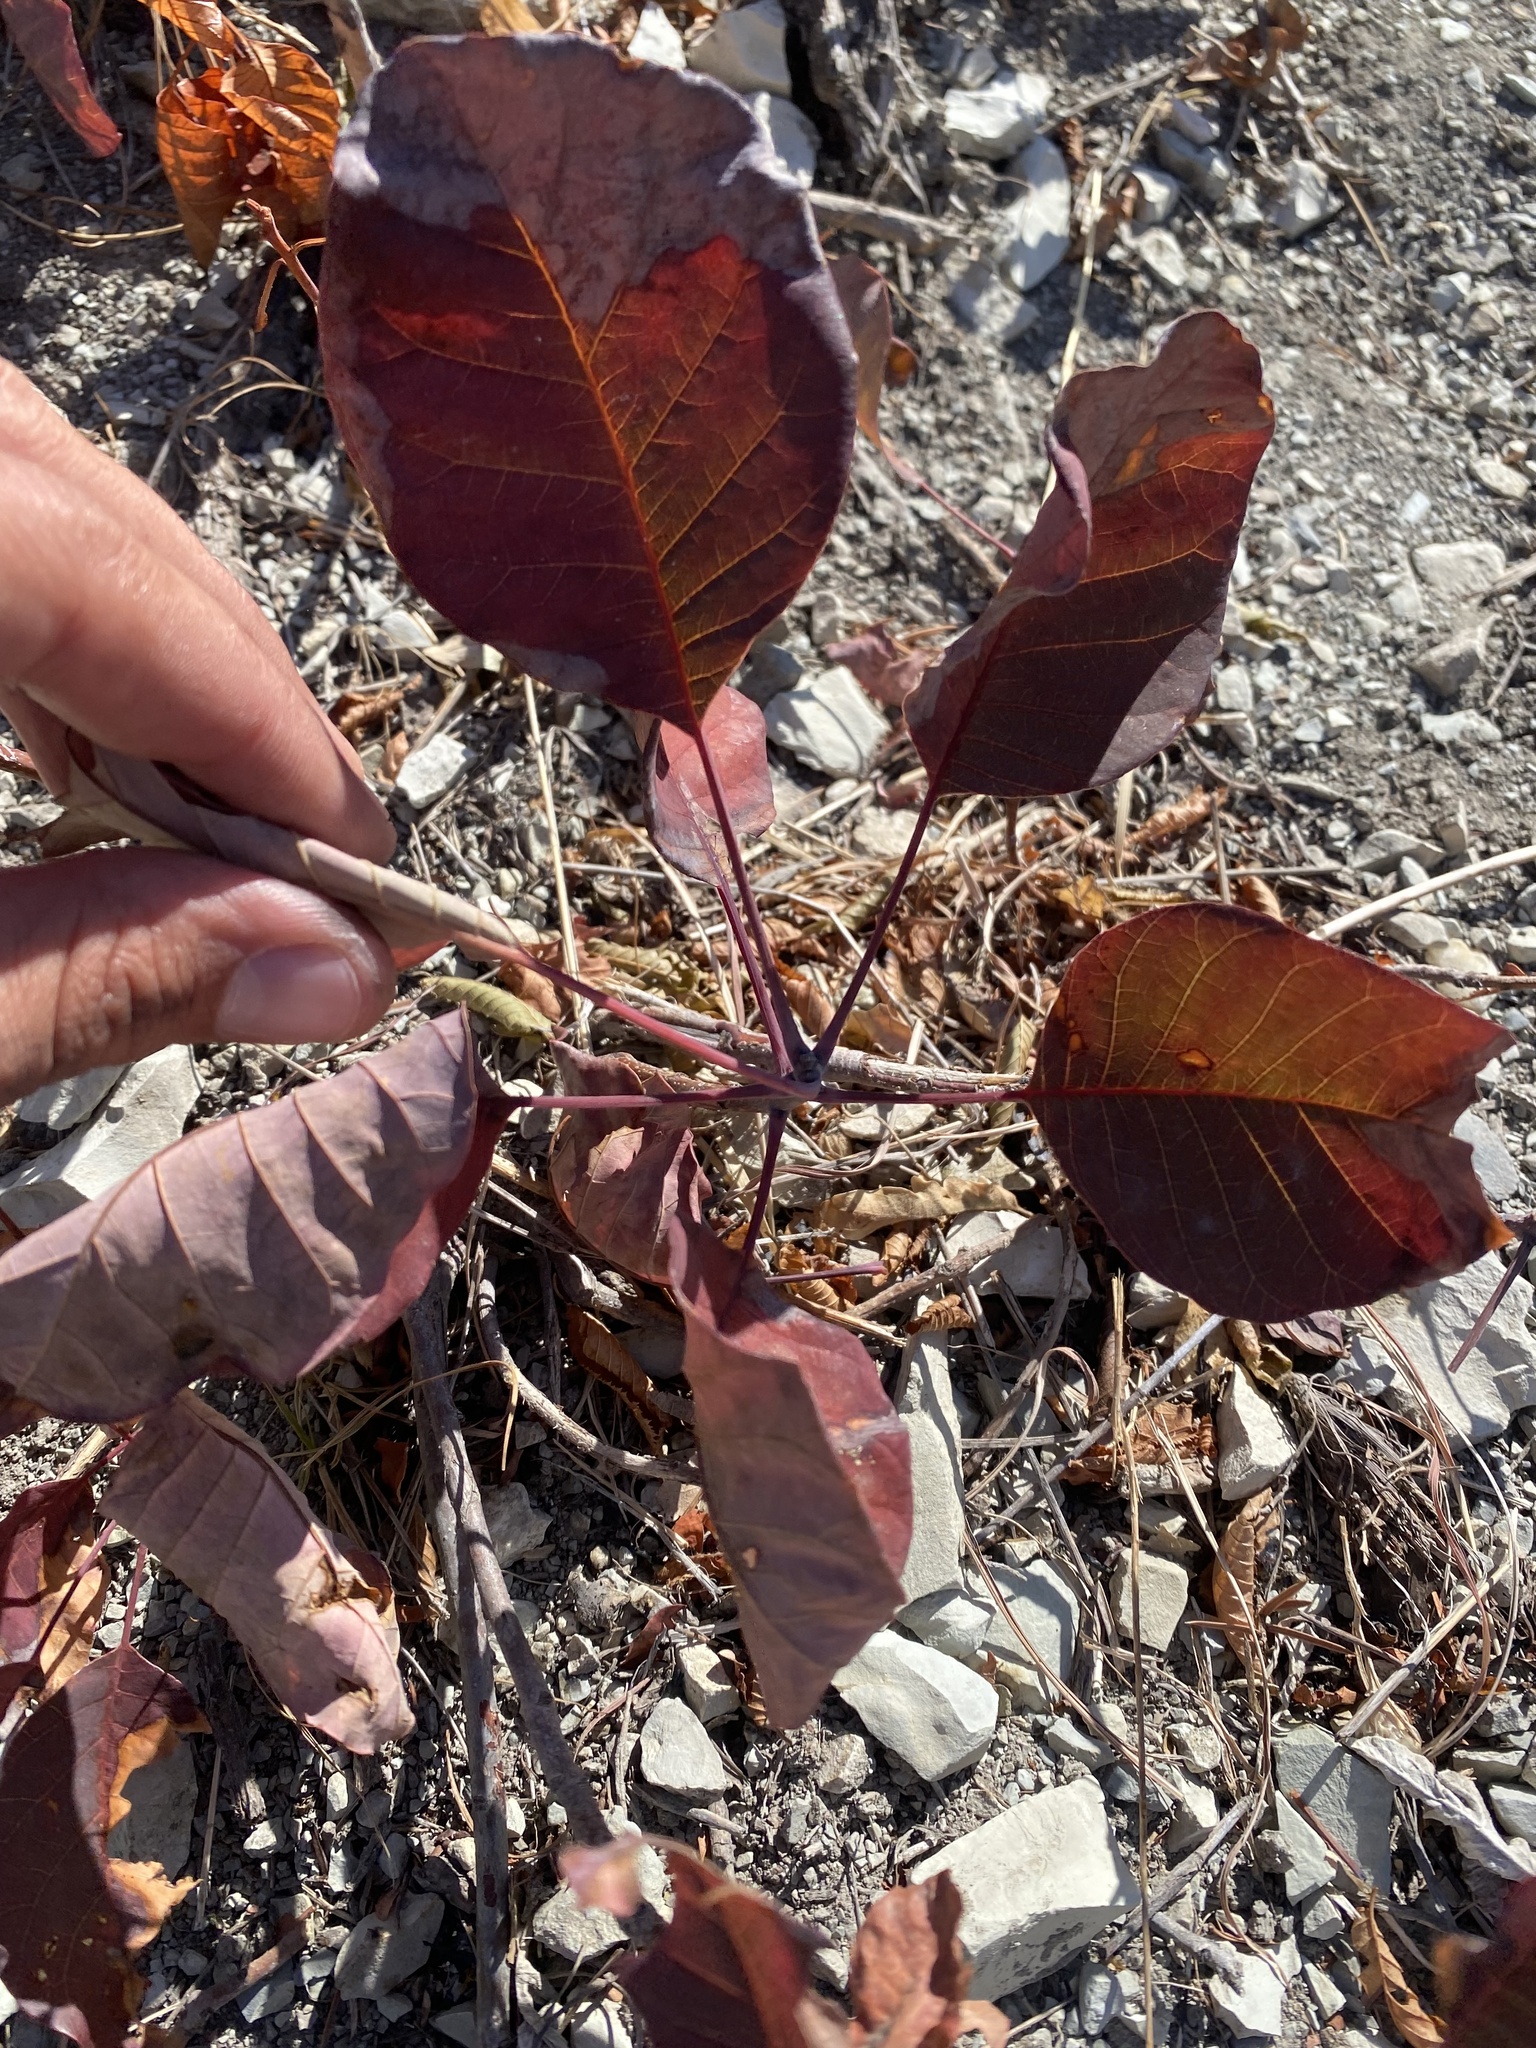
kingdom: Plantae
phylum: Tracheophyta
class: Magnoliopsida
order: Sapindales
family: Anacardiaceae
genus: Cotinus
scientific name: Cotinus coggygria
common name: Smoke-tree
